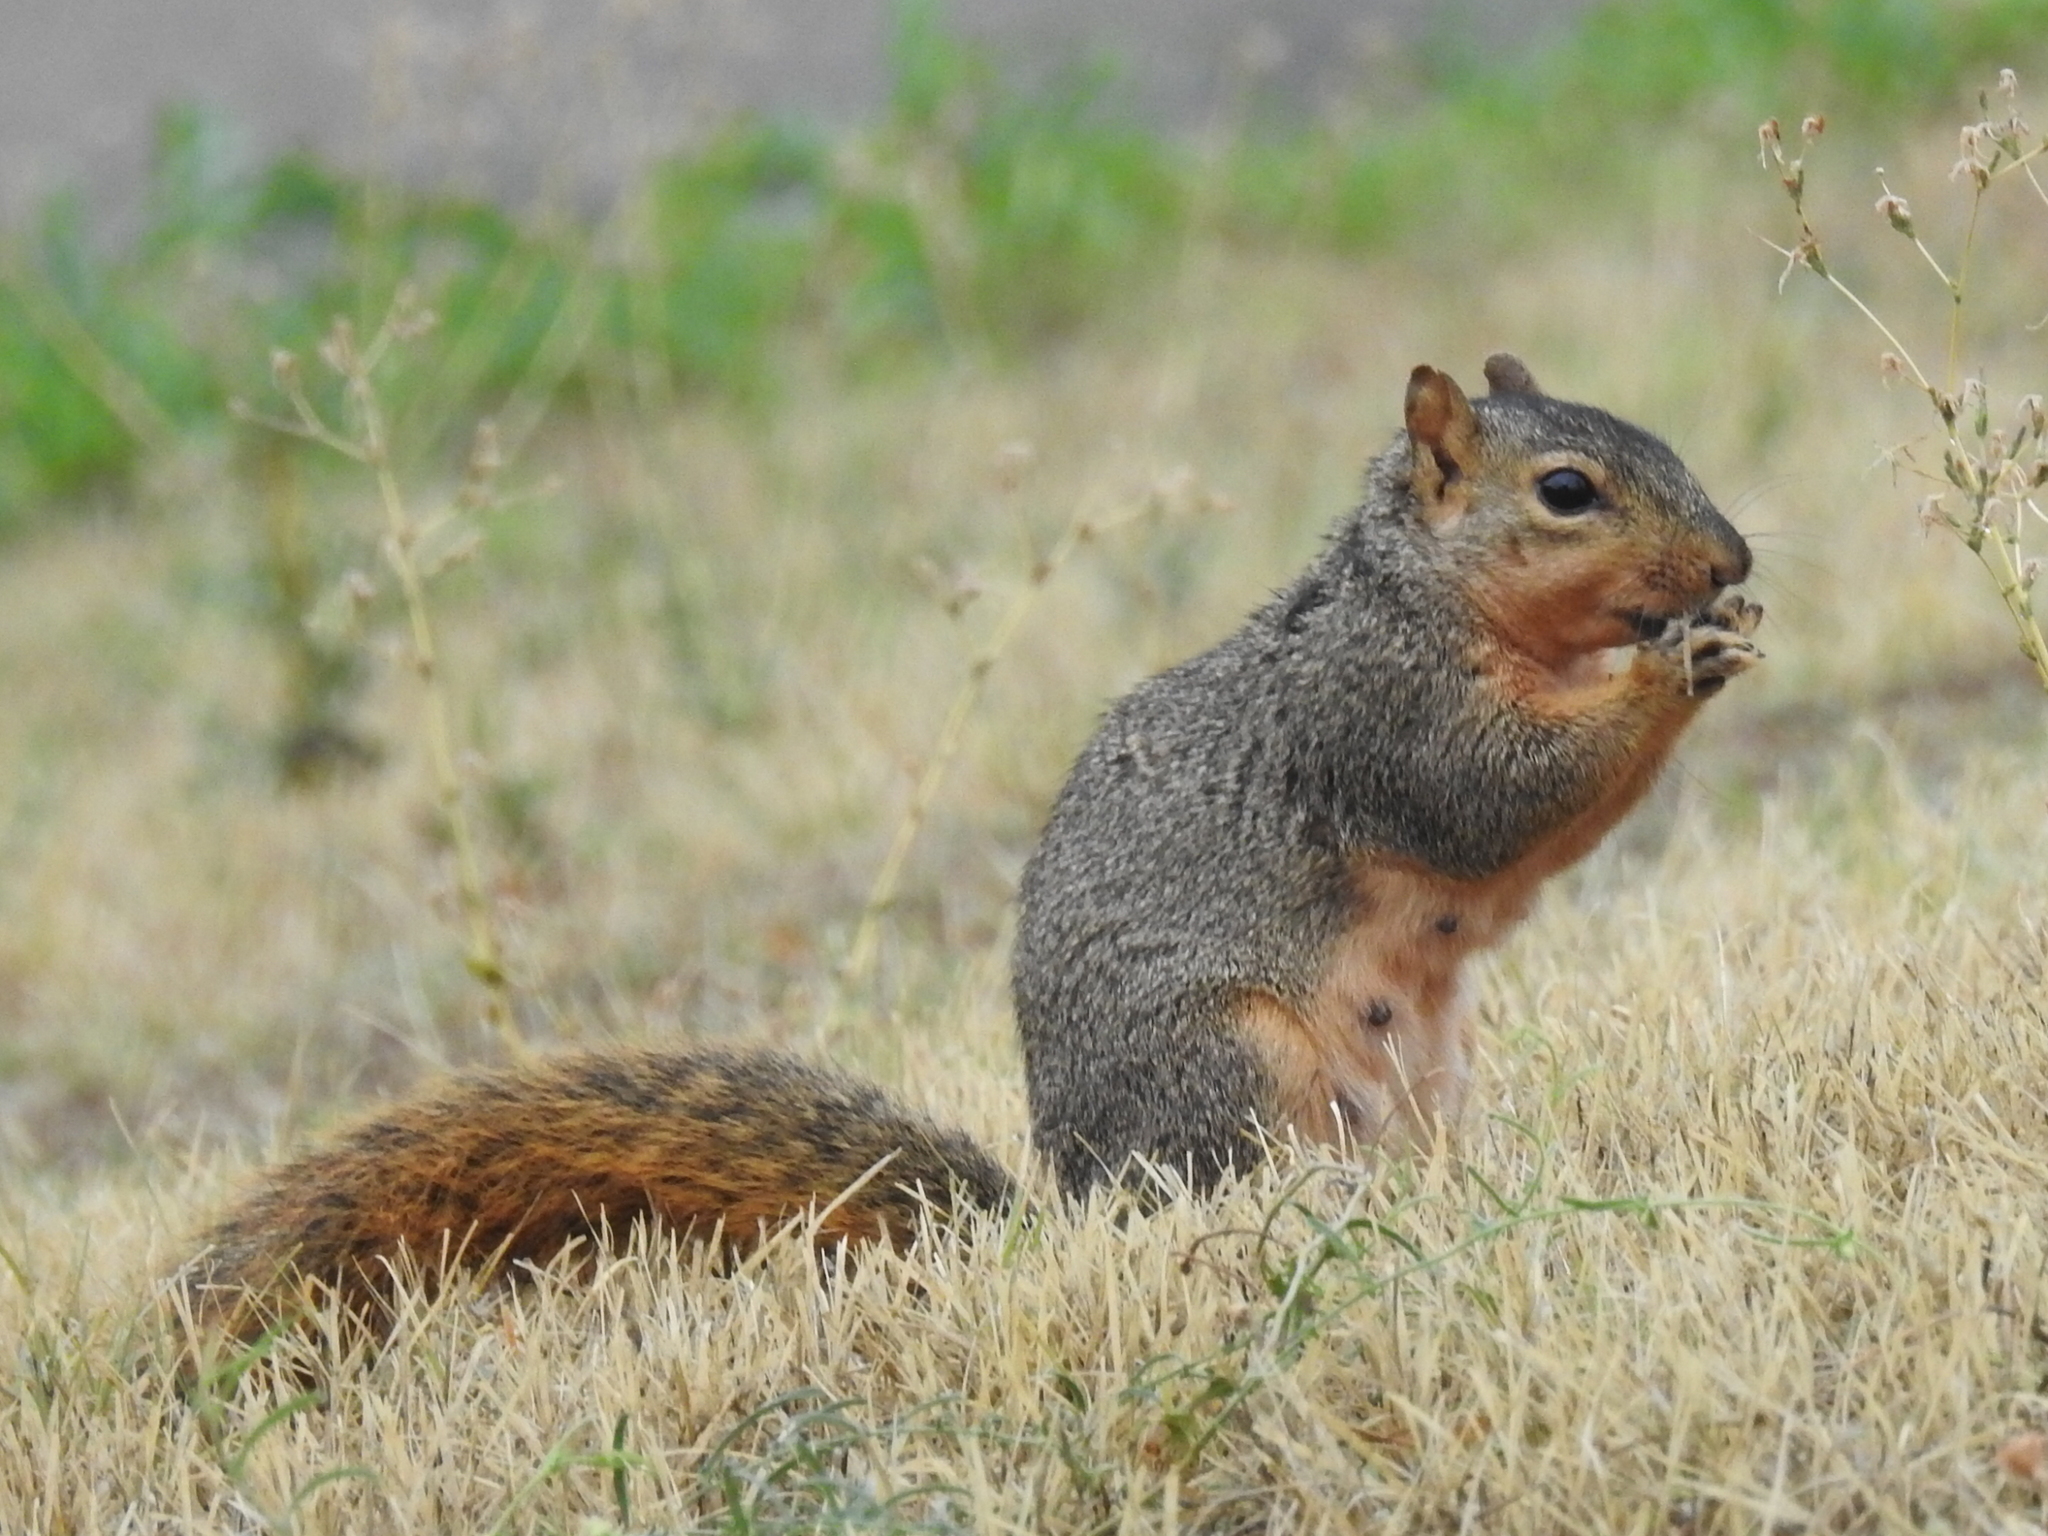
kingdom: Animalia
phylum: Chordata
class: Mammalia
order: Rodentia
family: Sciuridae
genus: Sciurus
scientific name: Sciurus niger
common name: Fox squirrel
